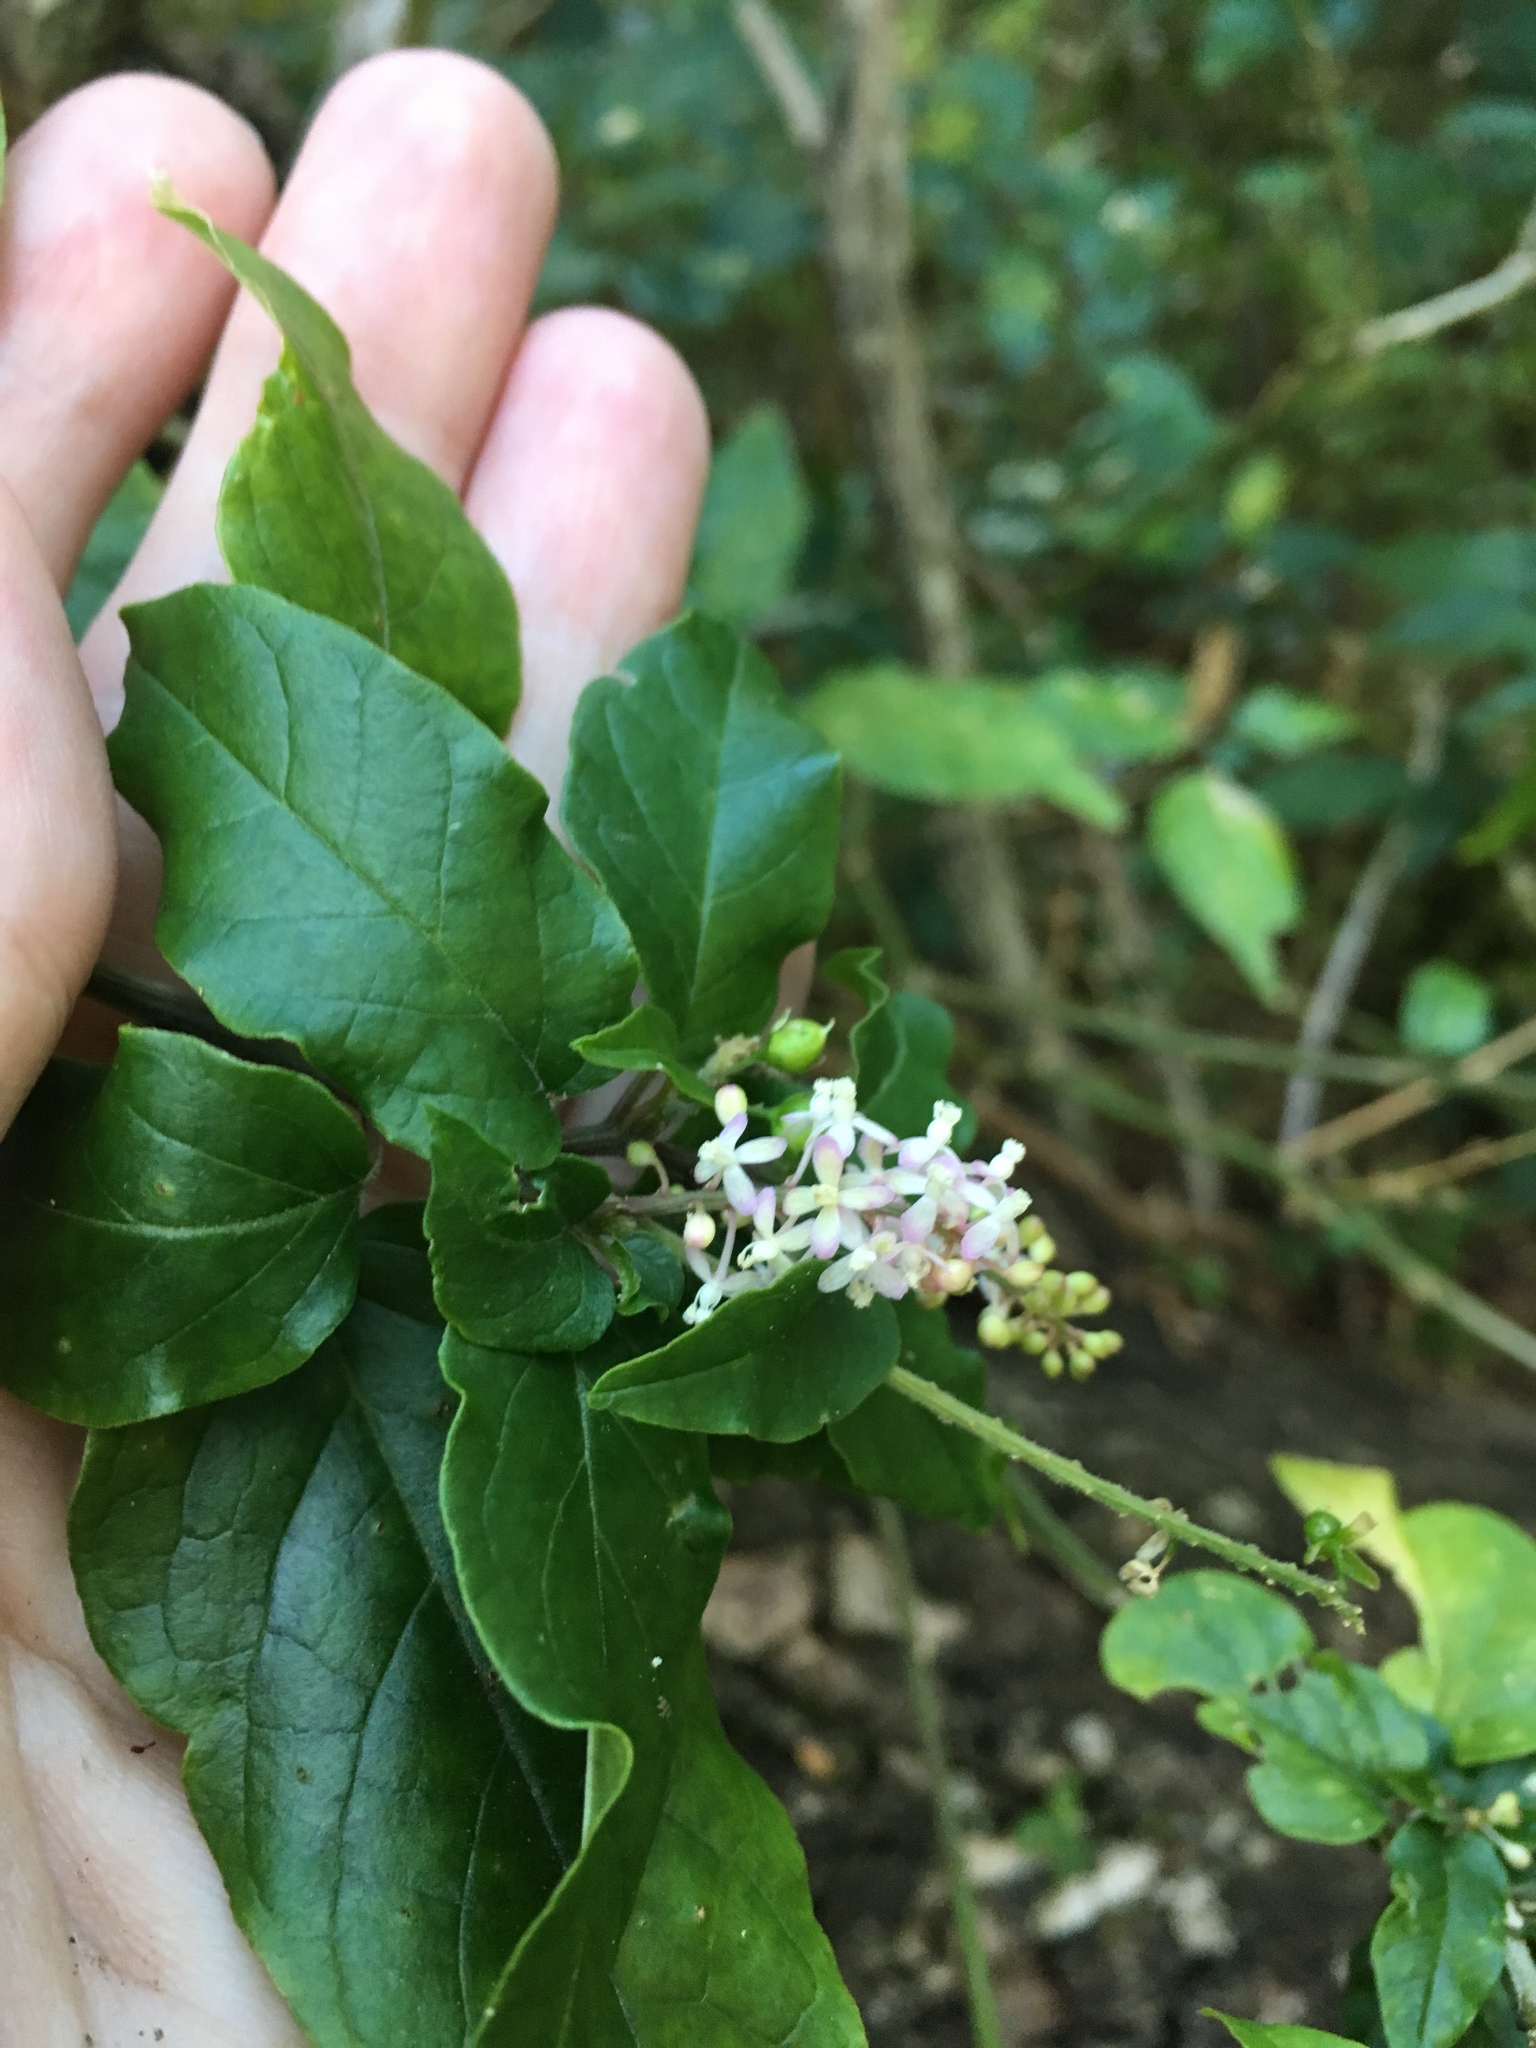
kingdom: Plantae
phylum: Tracheophyta
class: Magnoliopsida
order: Caryophyllales
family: Phytolaccaceae
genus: Rivina
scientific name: Rivina humilis
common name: Rougeplant
